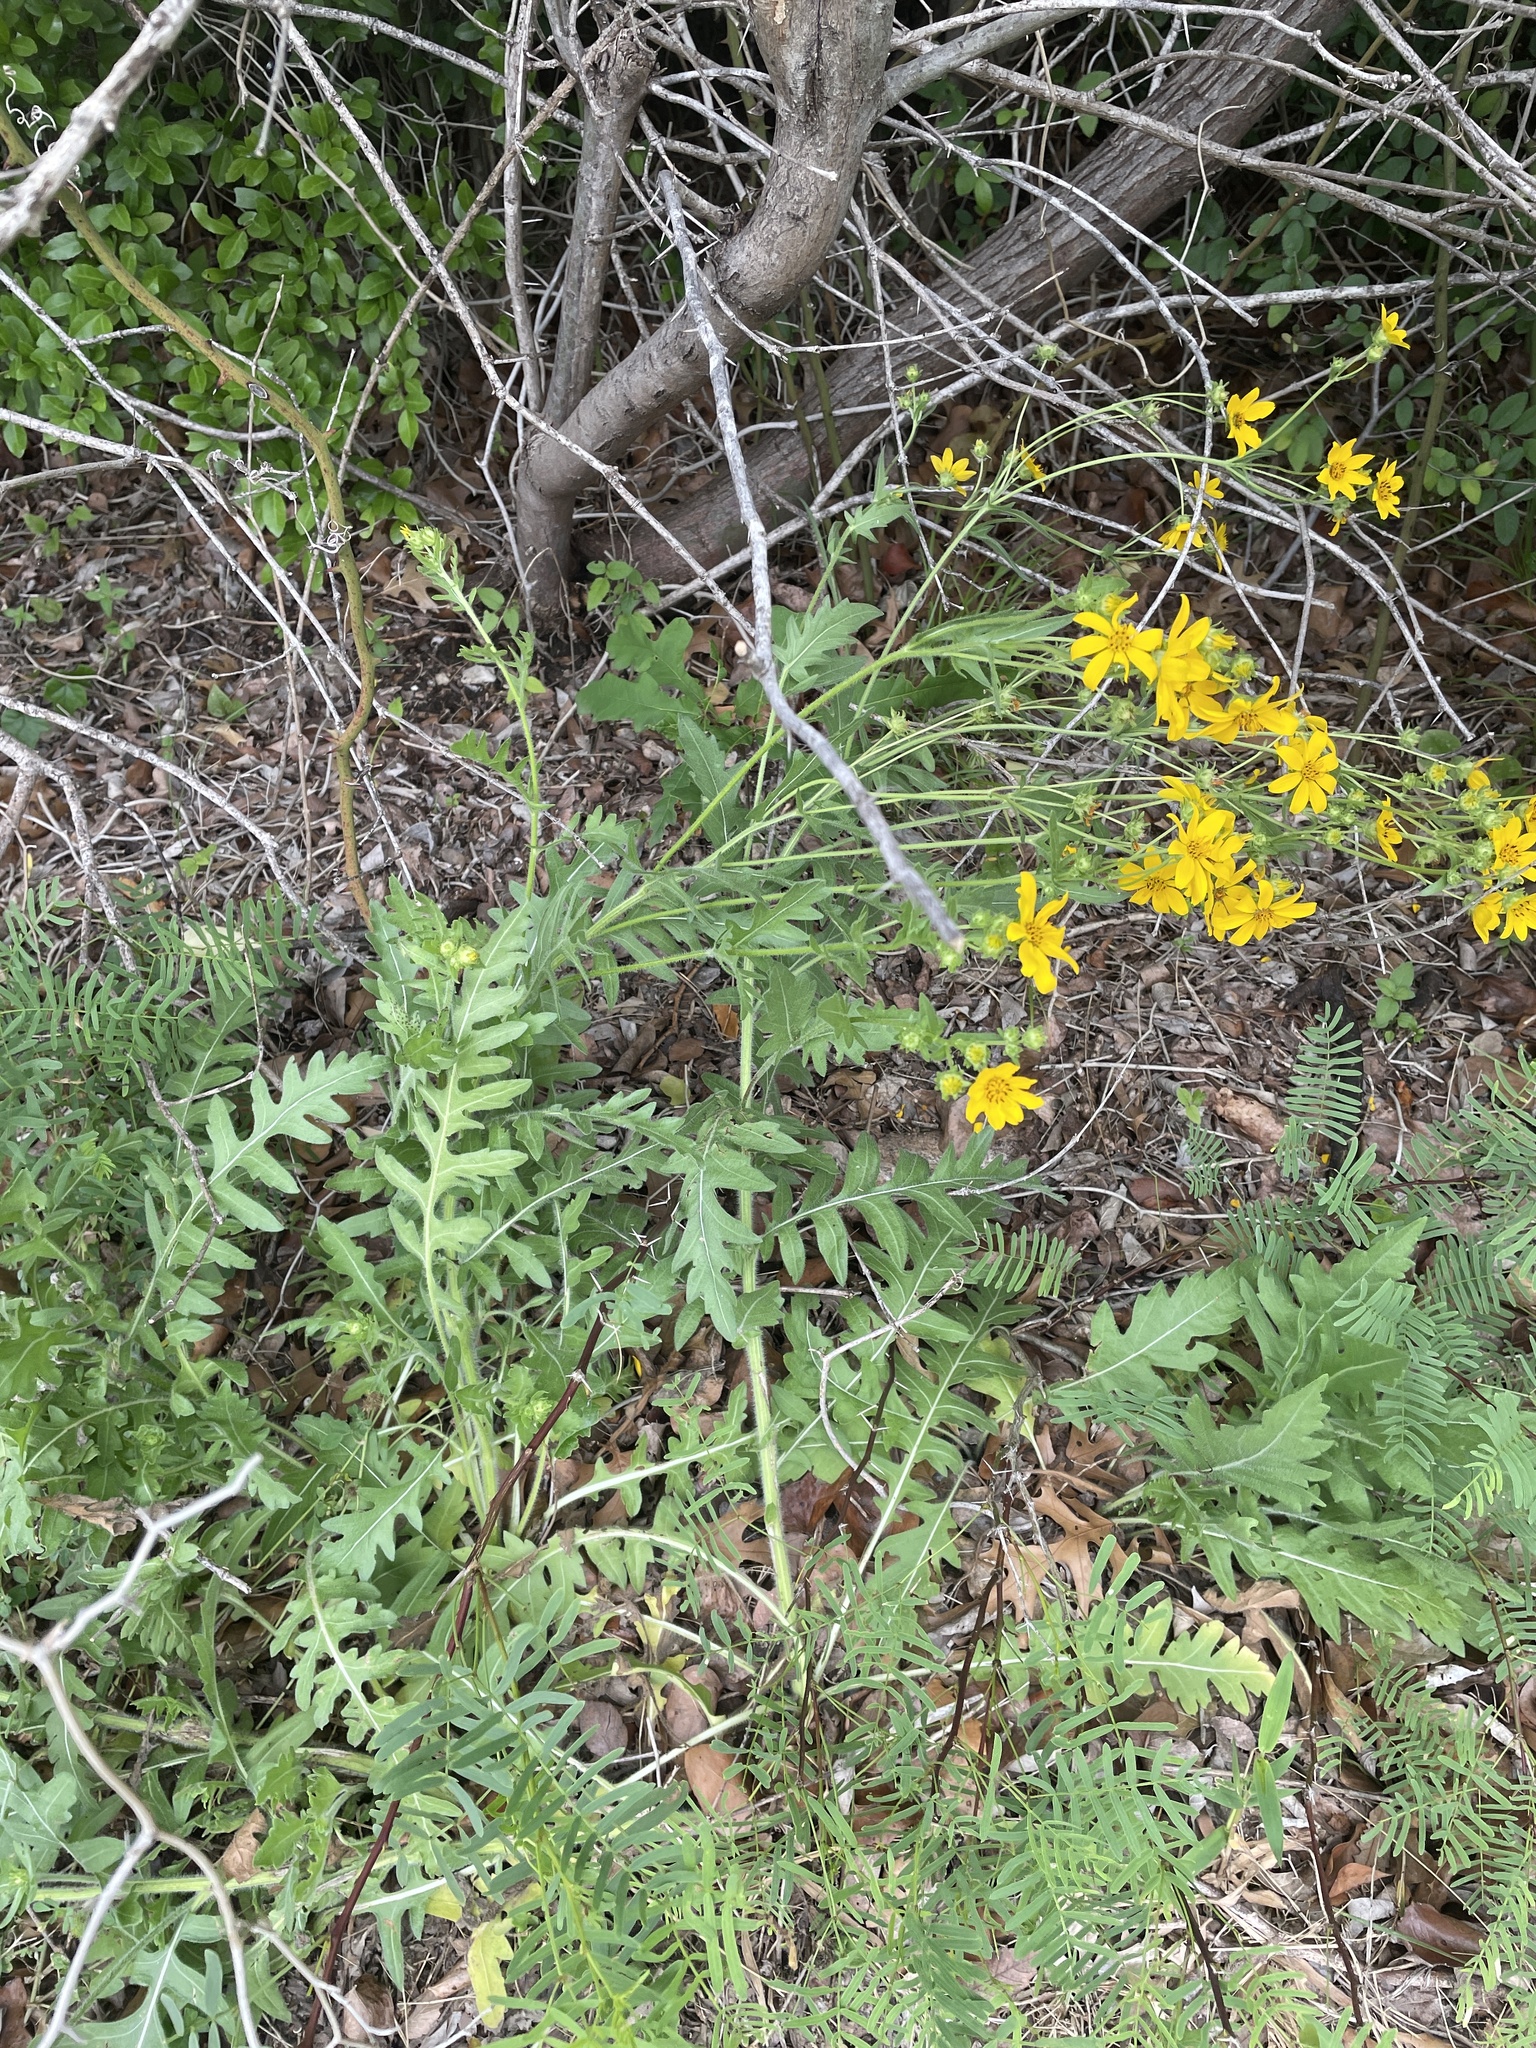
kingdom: Plantae
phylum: Tracheophyta
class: Magnoliopsida
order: Asterales
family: Asteraceae
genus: Engelmannia
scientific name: Engelmannia peristenia
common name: Engelmann's daisy
